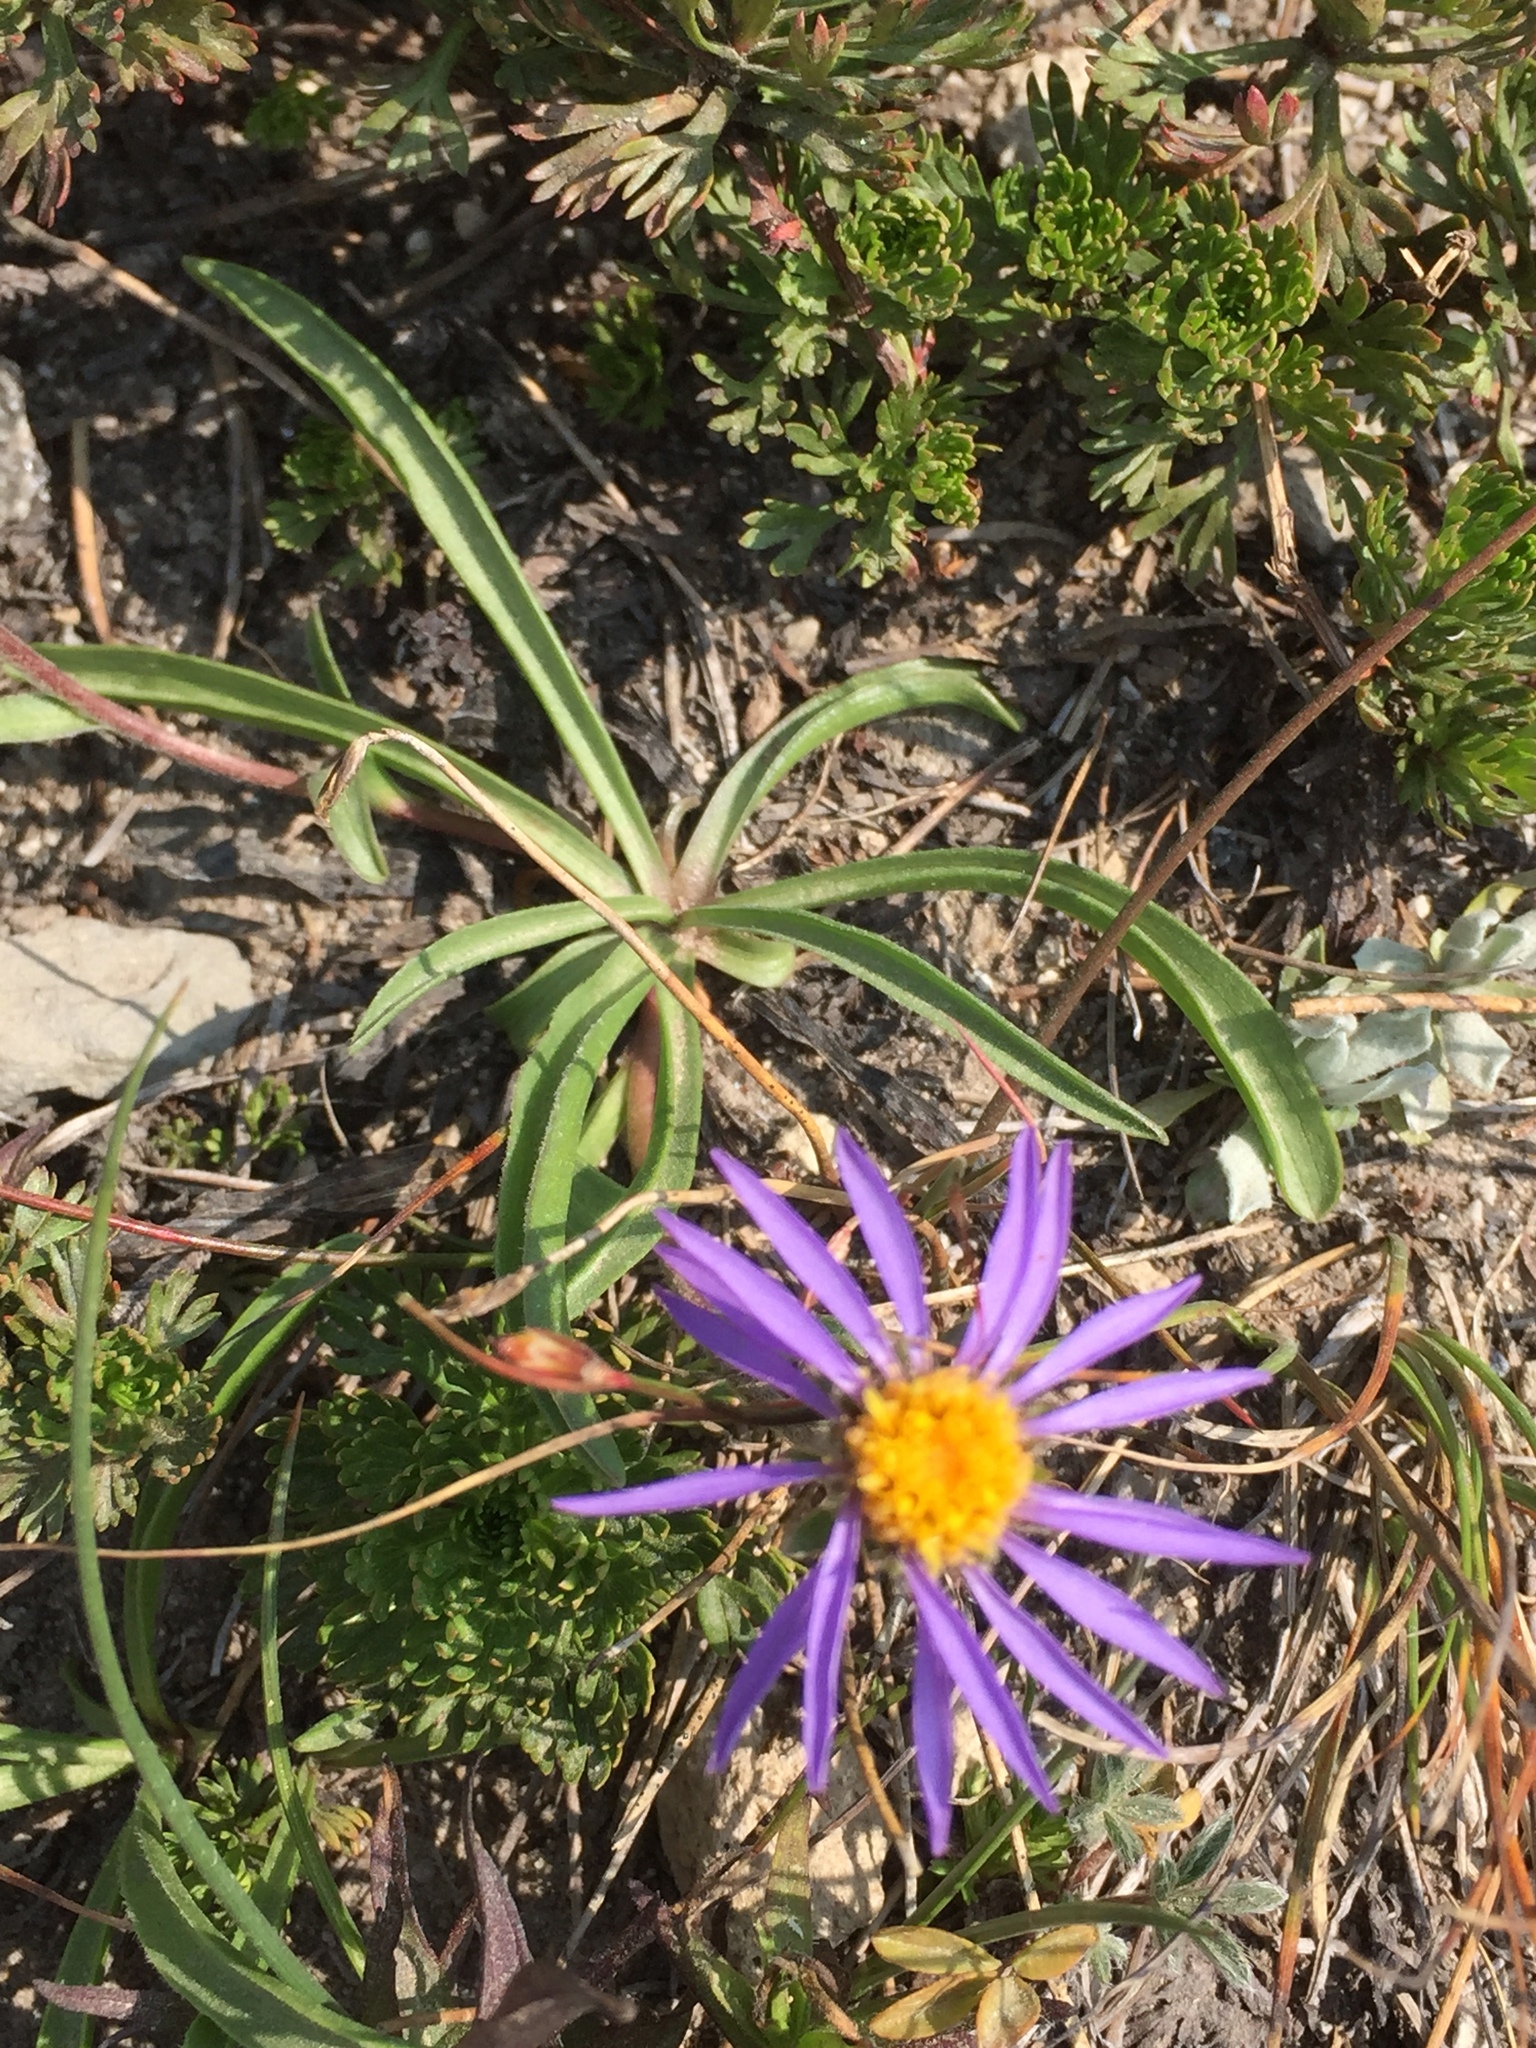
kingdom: Plantae
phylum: Tracheophyta
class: Magnoliopsida
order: Asterales
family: Asteraceae
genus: Oreostemma
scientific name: Oreostemma alpigenum
